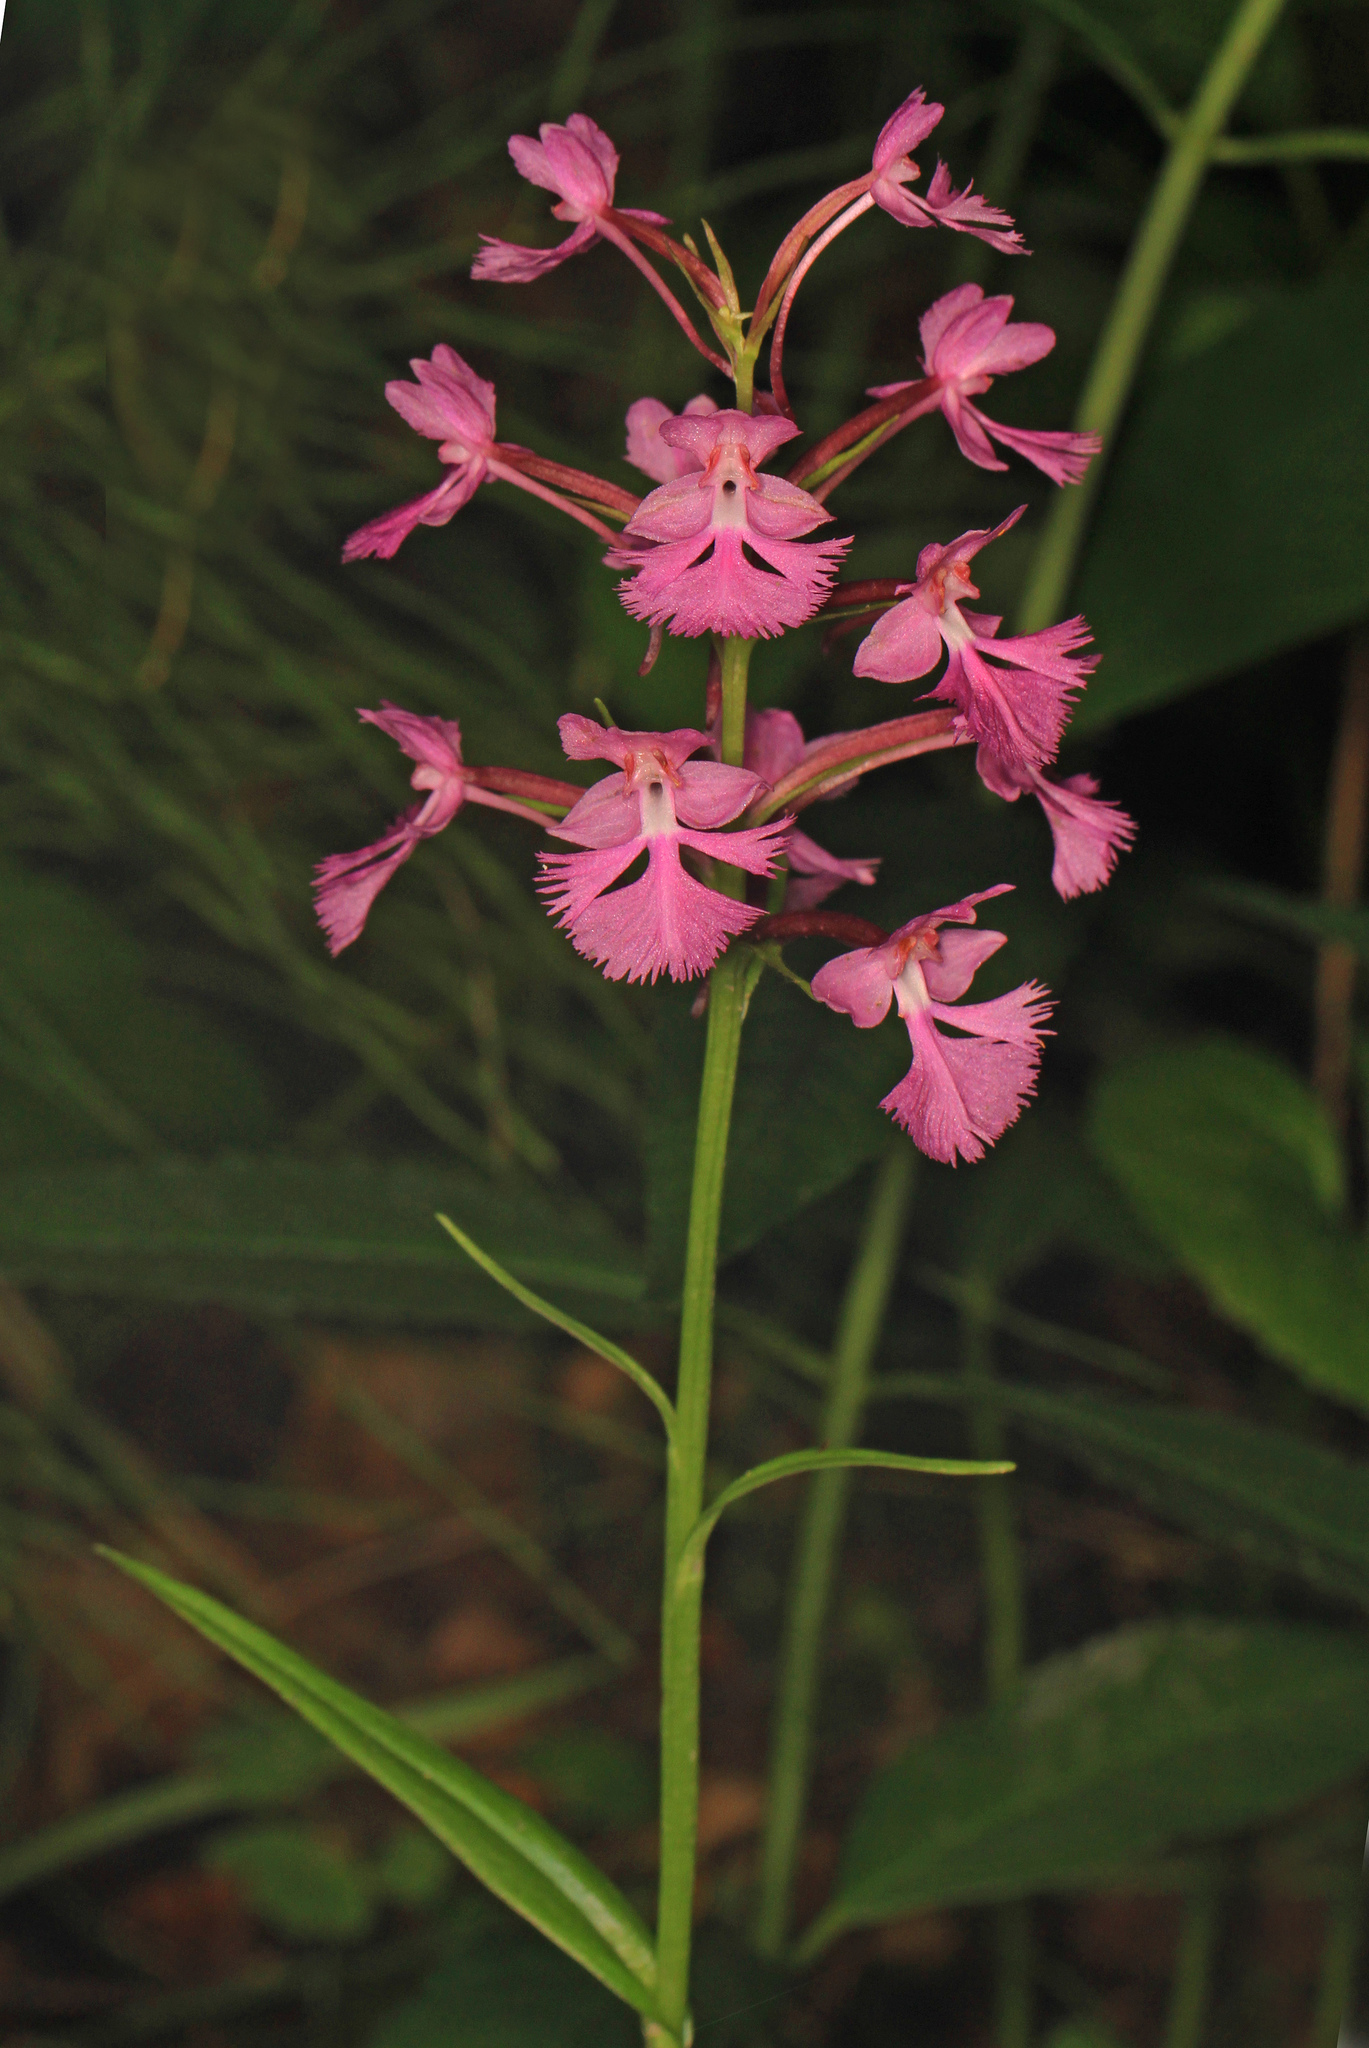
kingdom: Plantae
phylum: Tracheophyta
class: Liliopsida
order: Asparagales
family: Orchidaceae
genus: Platanthera
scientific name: Platanthera grandiflora
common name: Greater purple fringed orchid
